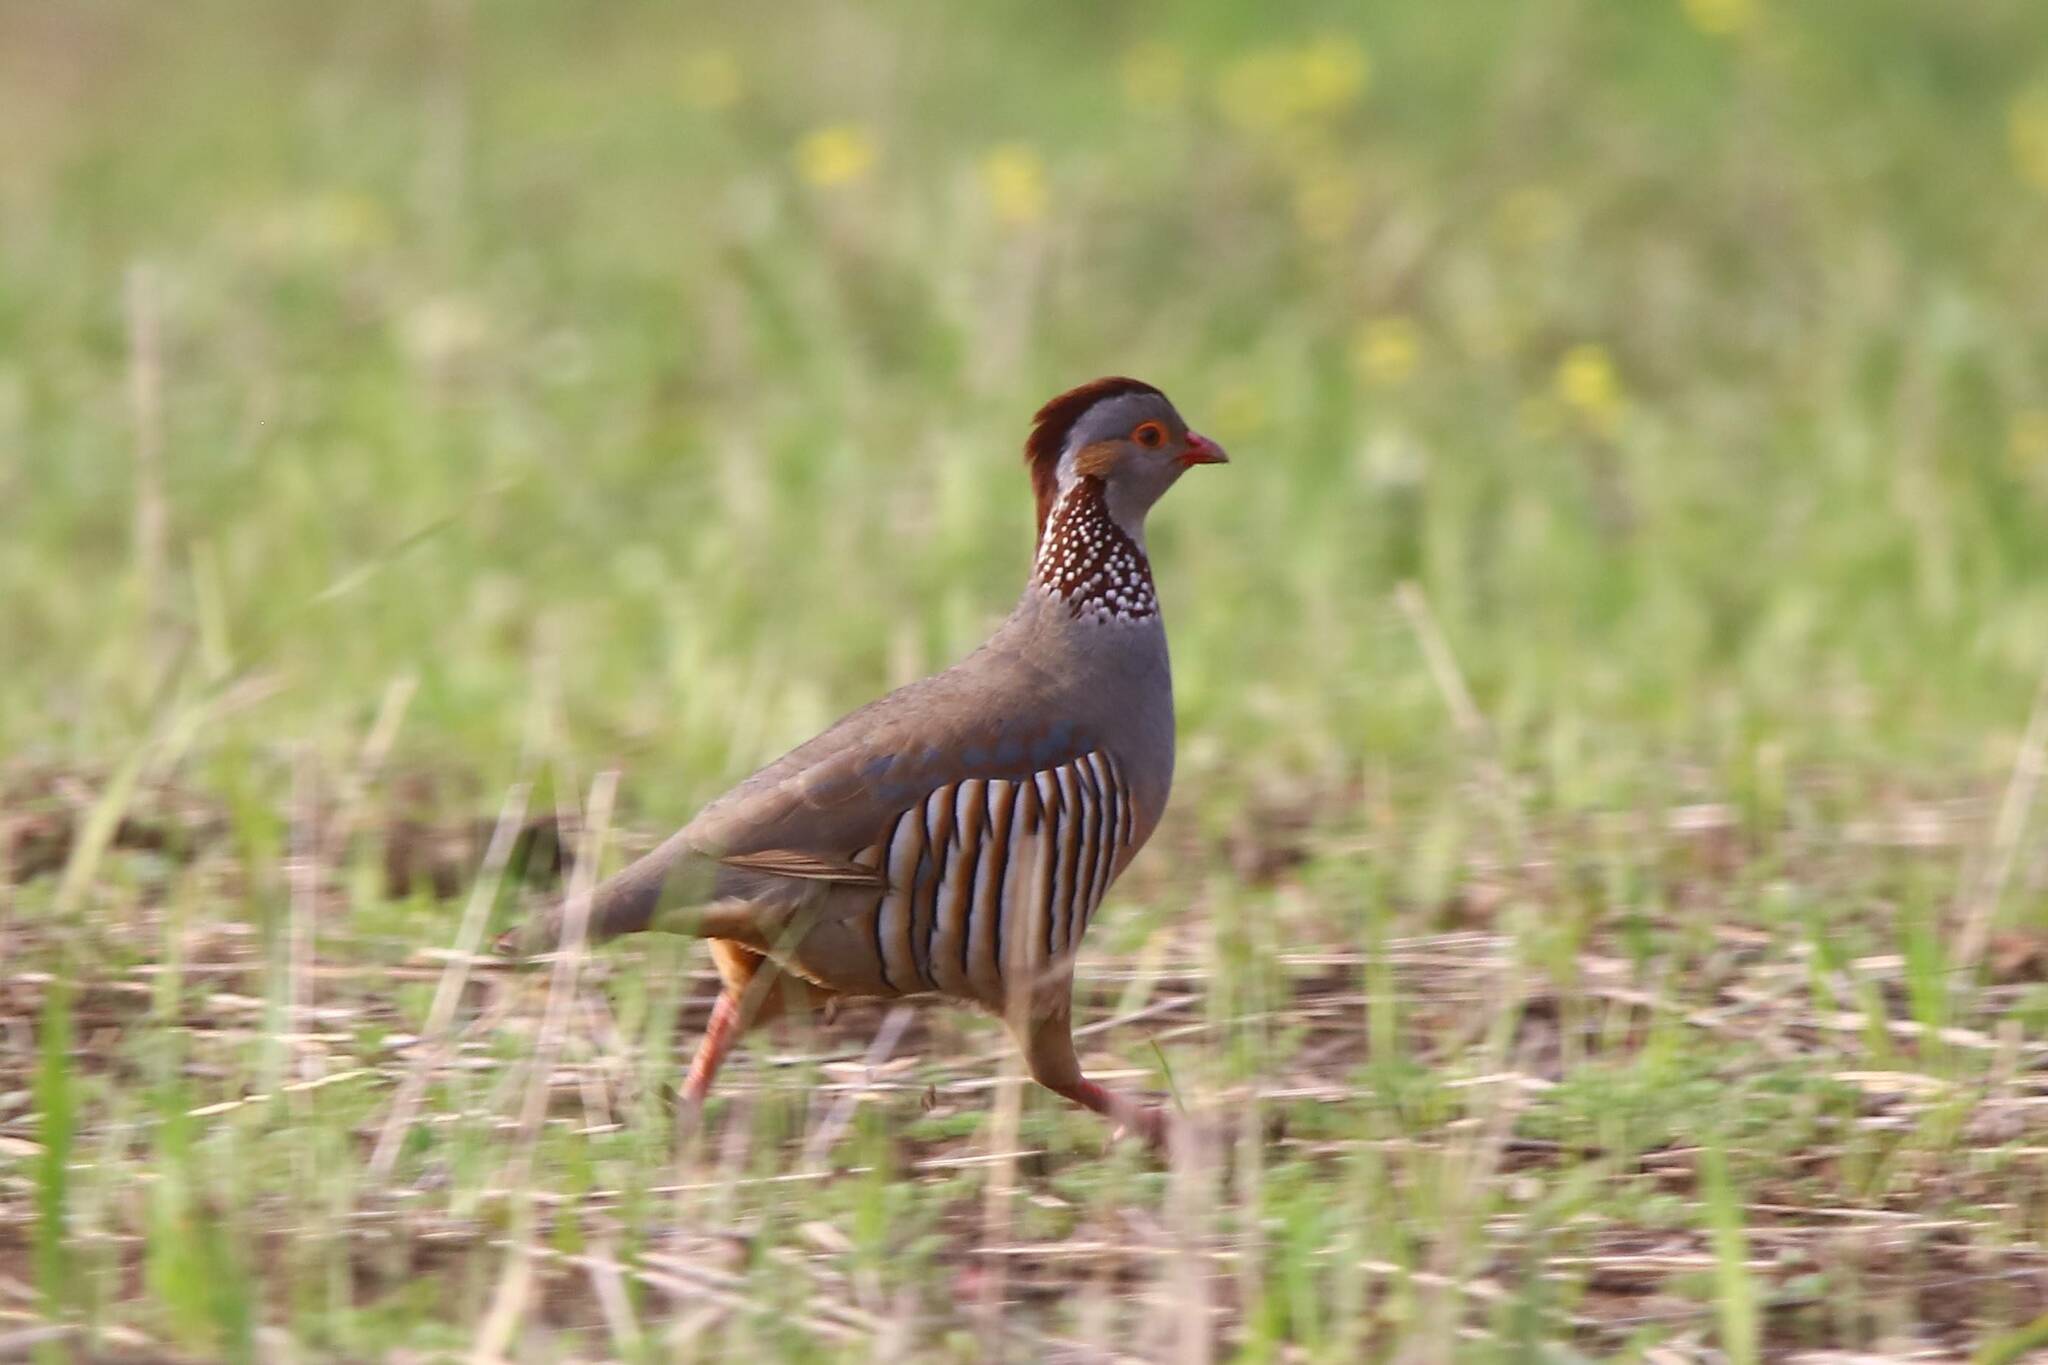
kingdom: Animalia
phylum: Chordata
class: Aves
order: Galliformes
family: Phasianidae
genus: Alectoris
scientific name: Alectoris barbara
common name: Barbary partridge
